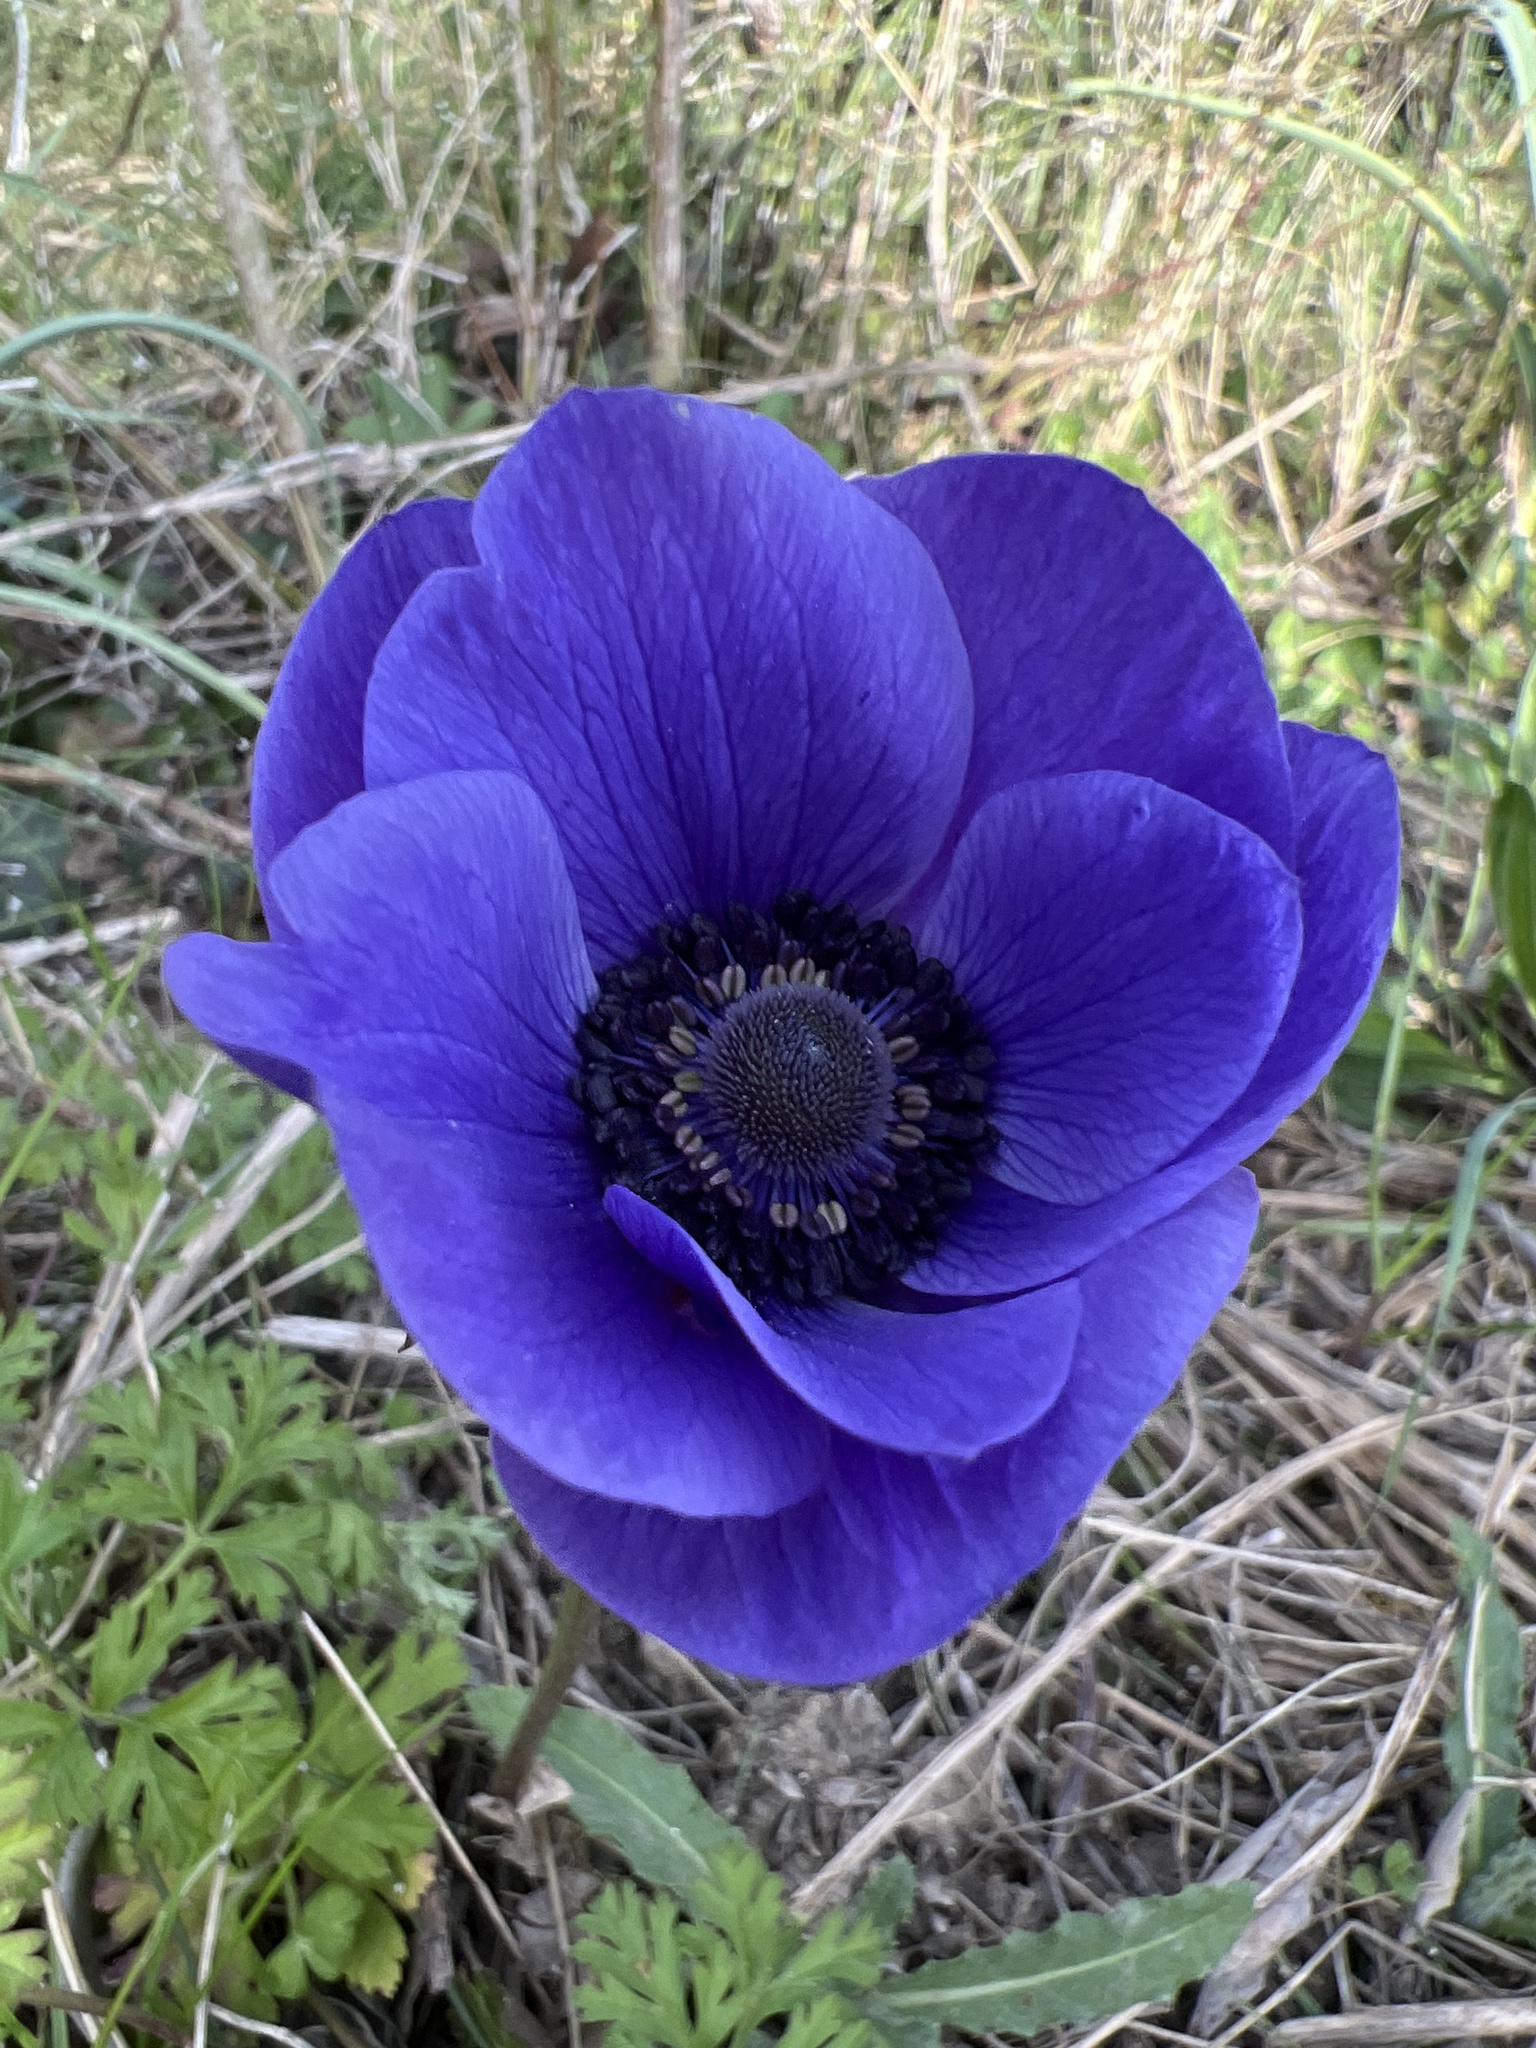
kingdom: Plantae
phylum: Tracheophyta
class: Magnoliopsida
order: Ranunculales
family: Ranunculaceae
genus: Anemone
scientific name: Anemone coronaria
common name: Poppy anemone
